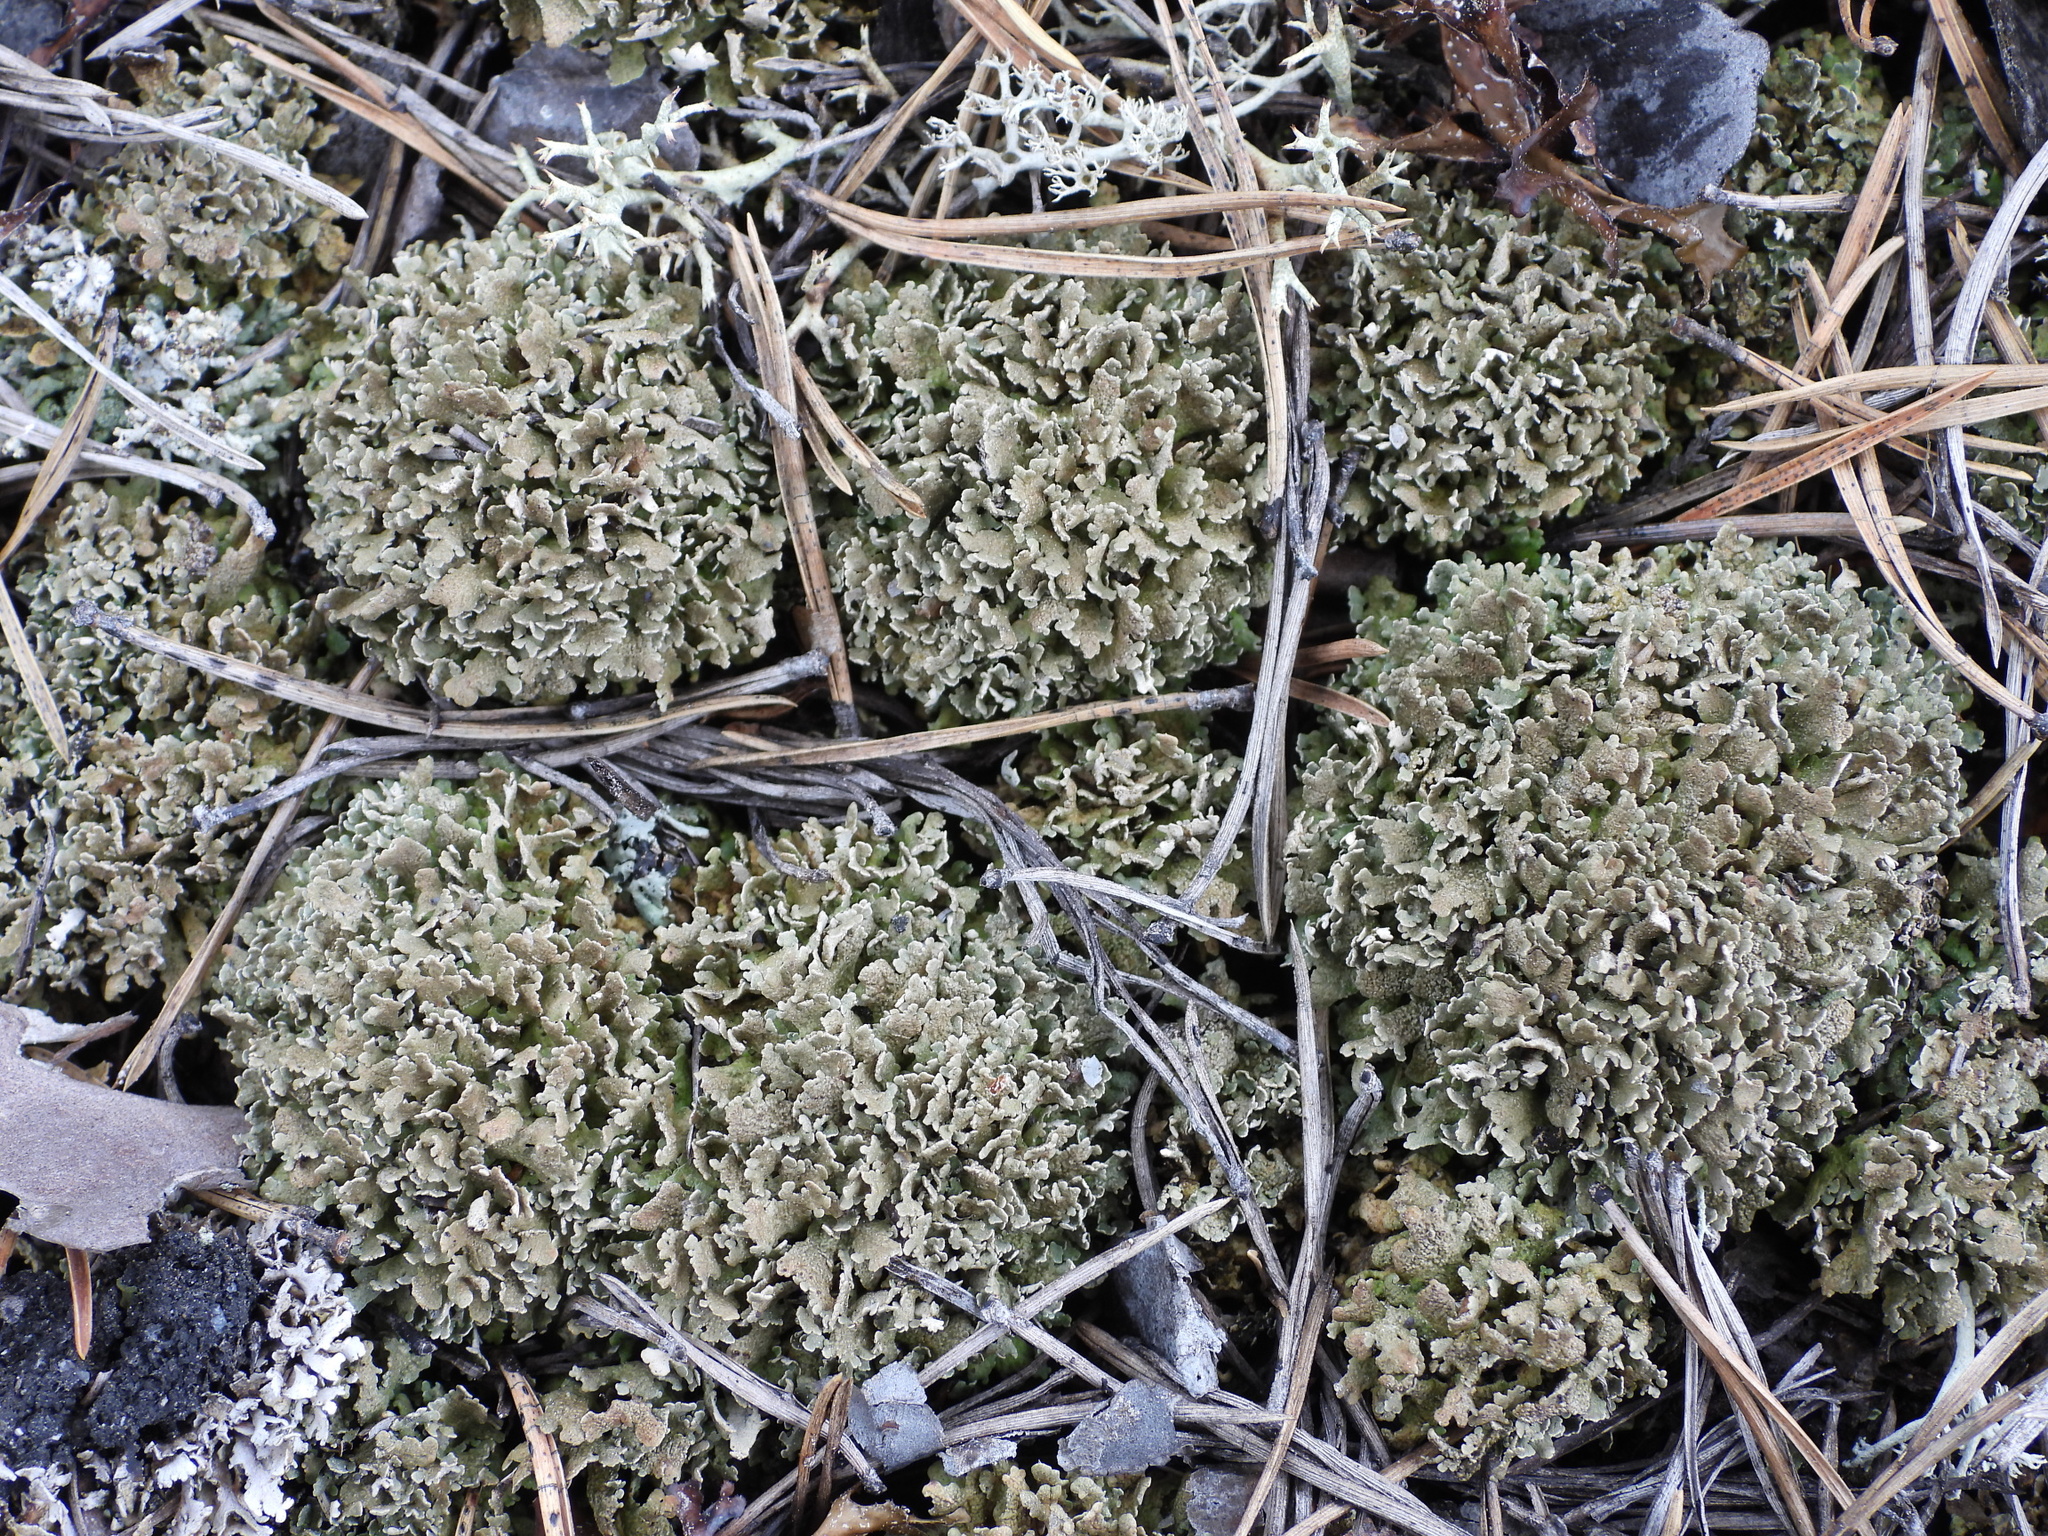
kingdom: Fungi
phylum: Ascomycota
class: Lecanoromycetes
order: Lecanorales
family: Cladoniaceae
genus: Cladonia
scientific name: Cladonia strepsilis
